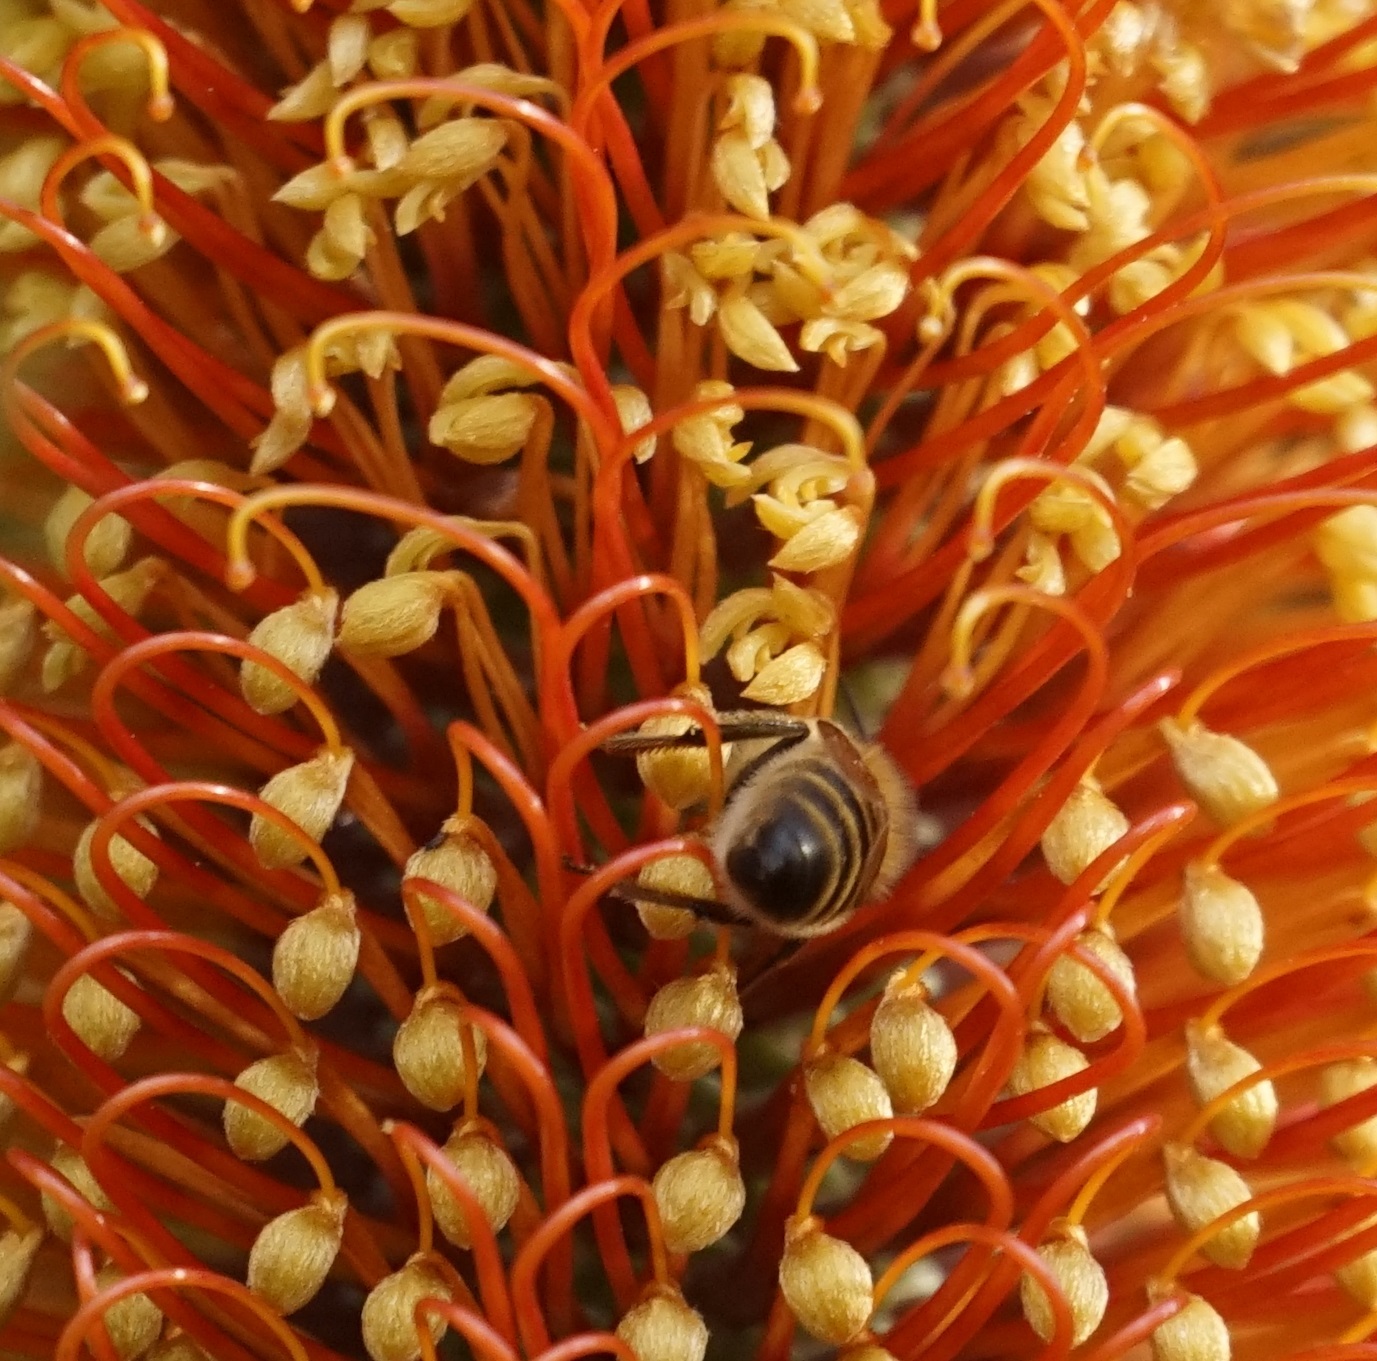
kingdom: Animalia
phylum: Arthropoda
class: Insecta
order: Hymenoptera
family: Apidae
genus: Apis
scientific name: Apis mellifera
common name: Honey bee
